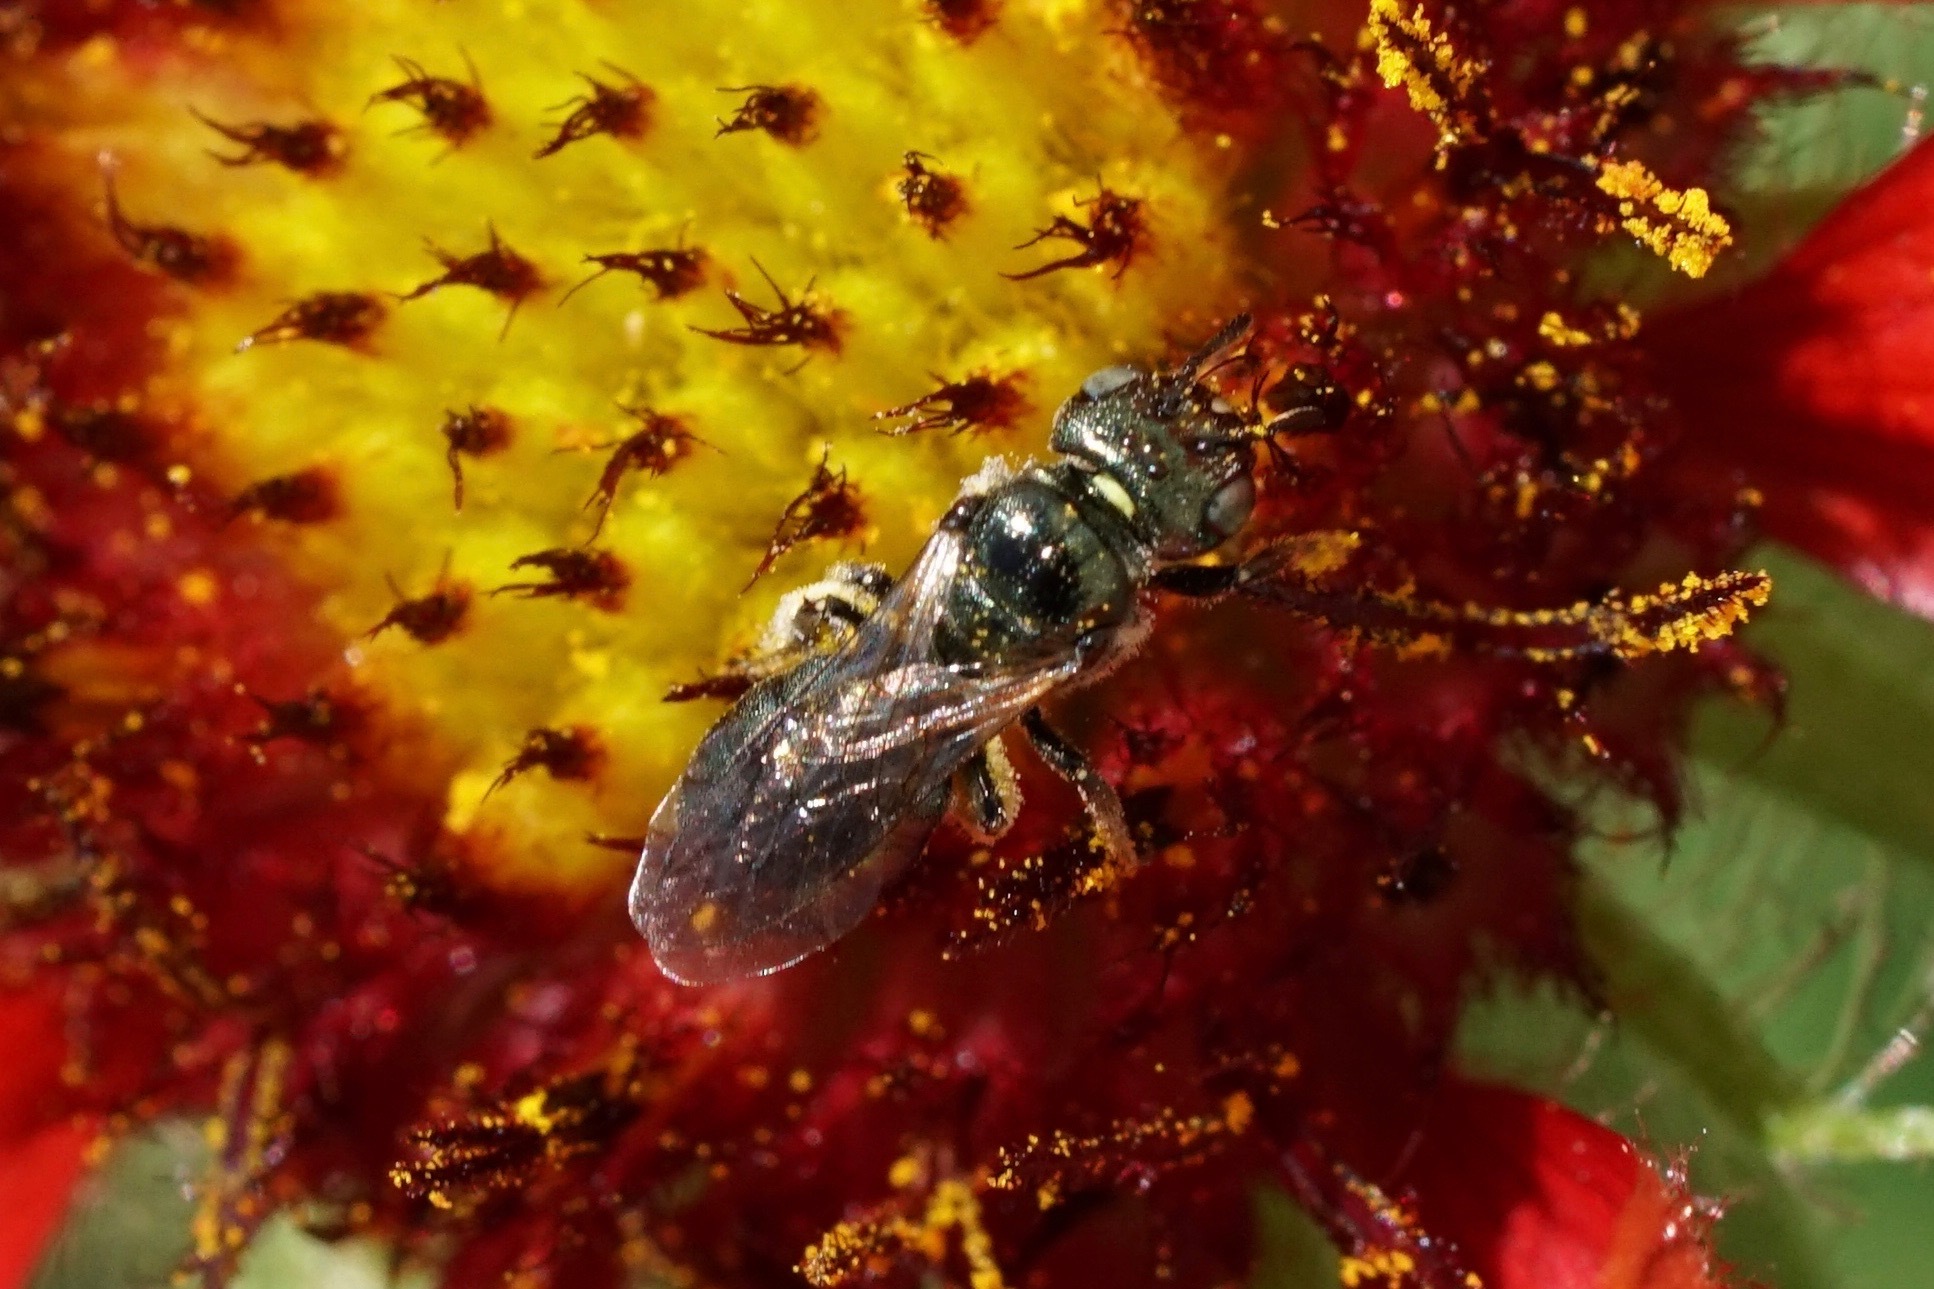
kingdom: Animalia
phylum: Arthropoda
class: Insecta
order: Hymenoptera
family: Apidae
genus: Zadontomerus
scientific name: Zadontomerus
